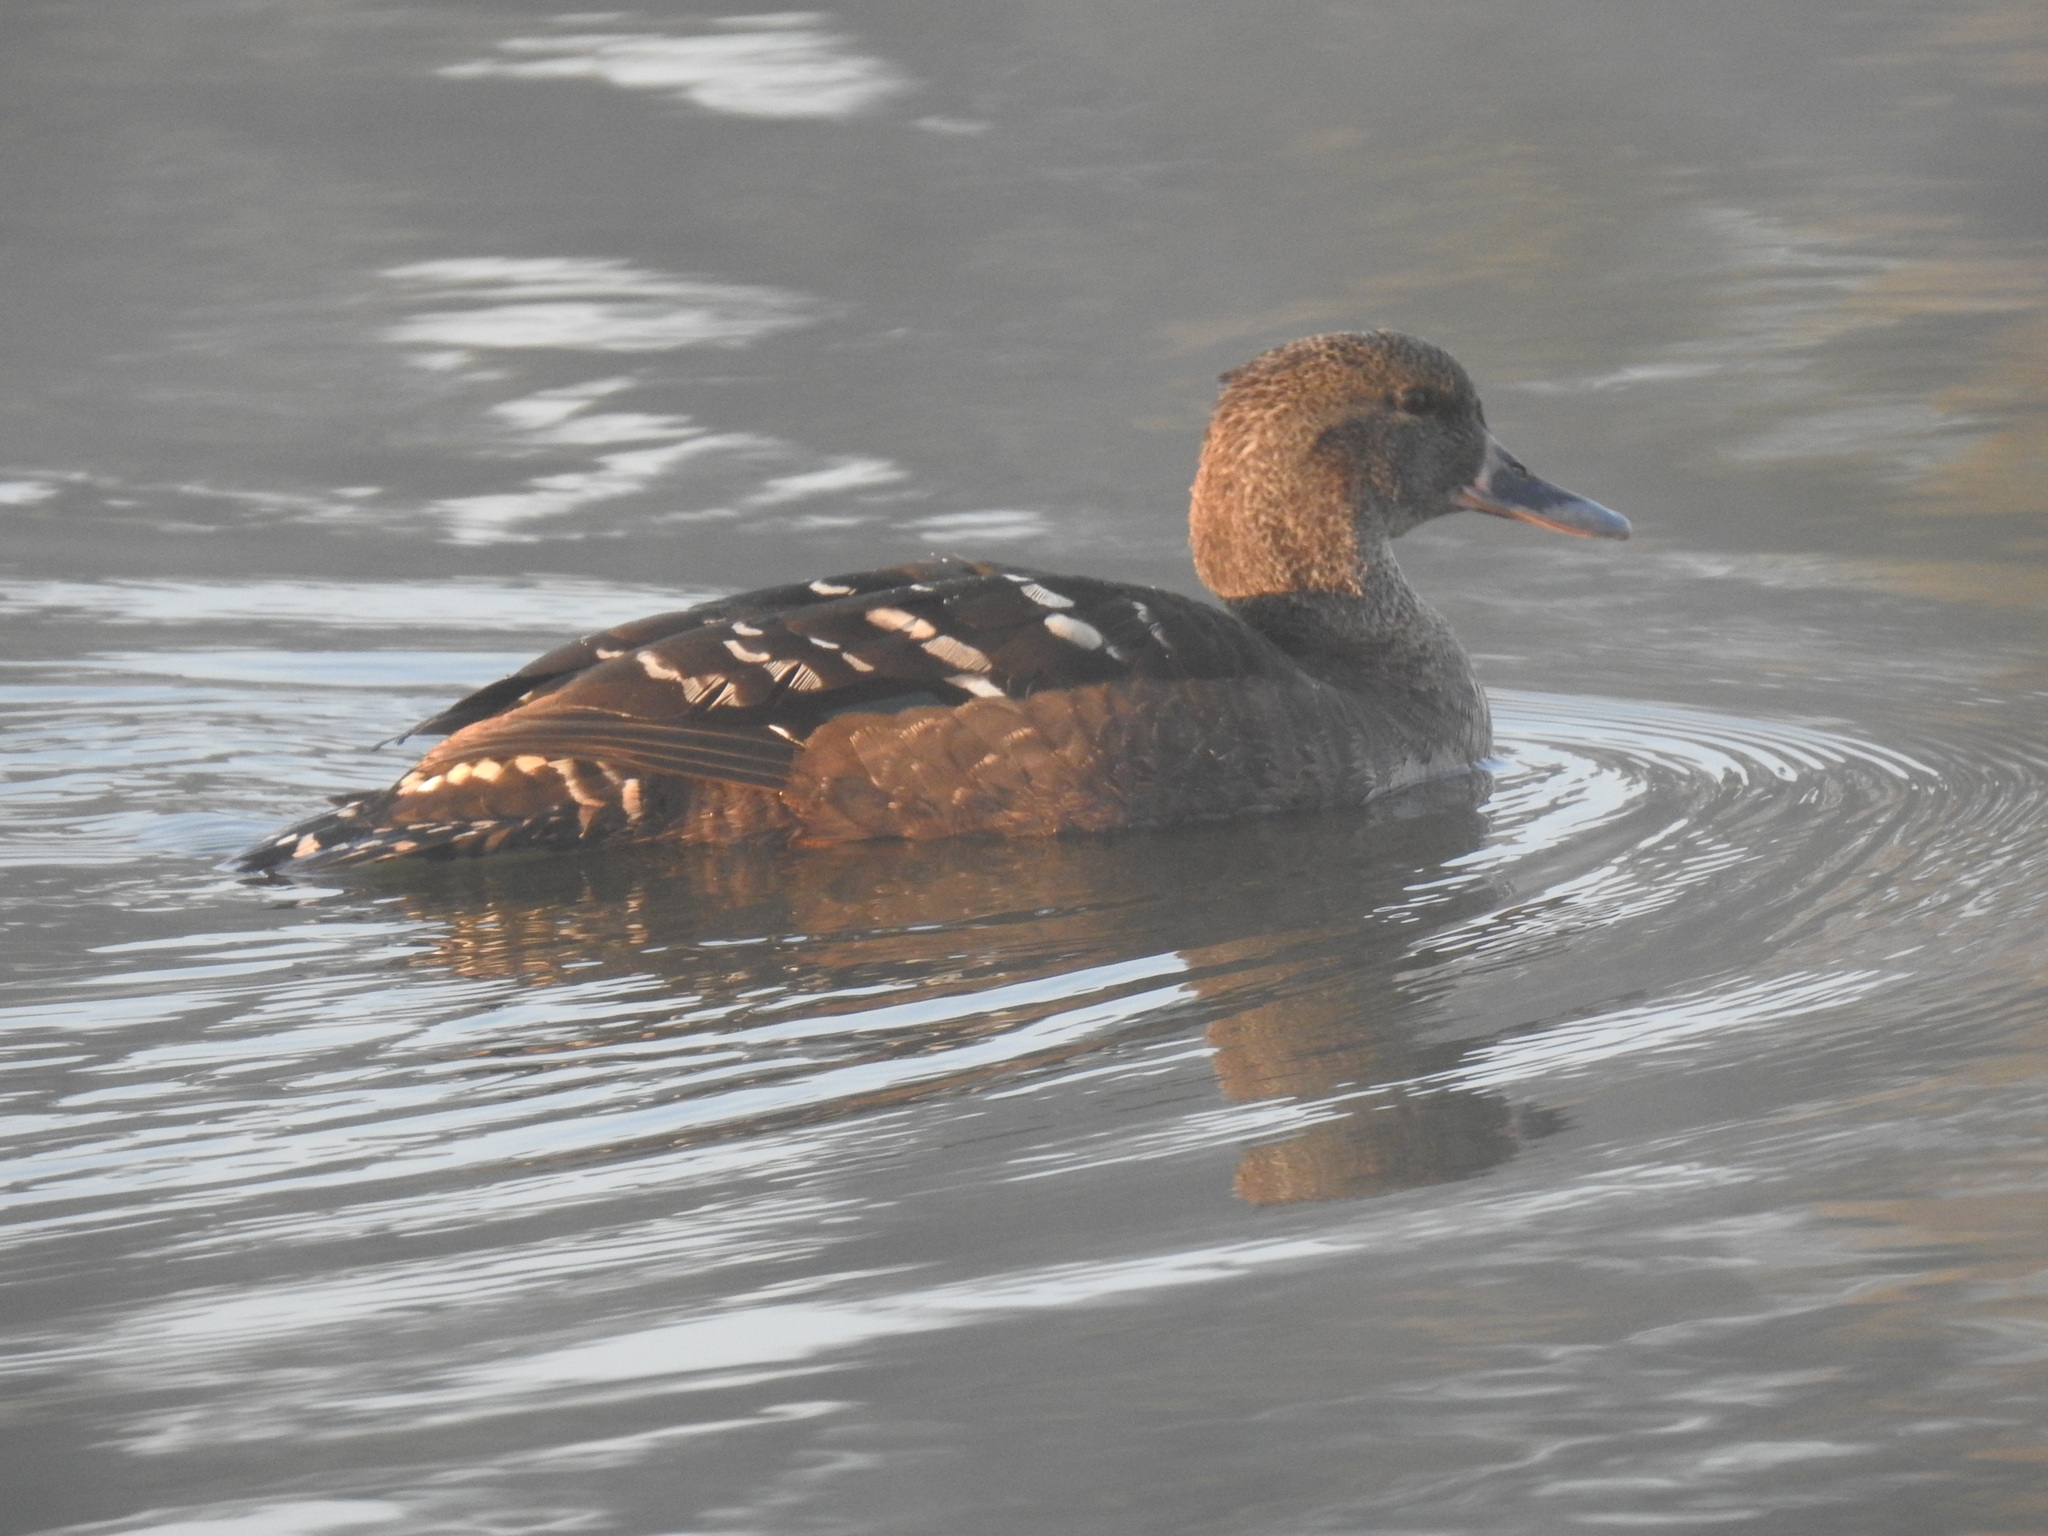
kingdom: Animalia
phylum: Chordata
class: Aves
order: Anseriformes
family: Anatidae
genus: Anas
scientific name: Anas sparsa
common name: African black duck
